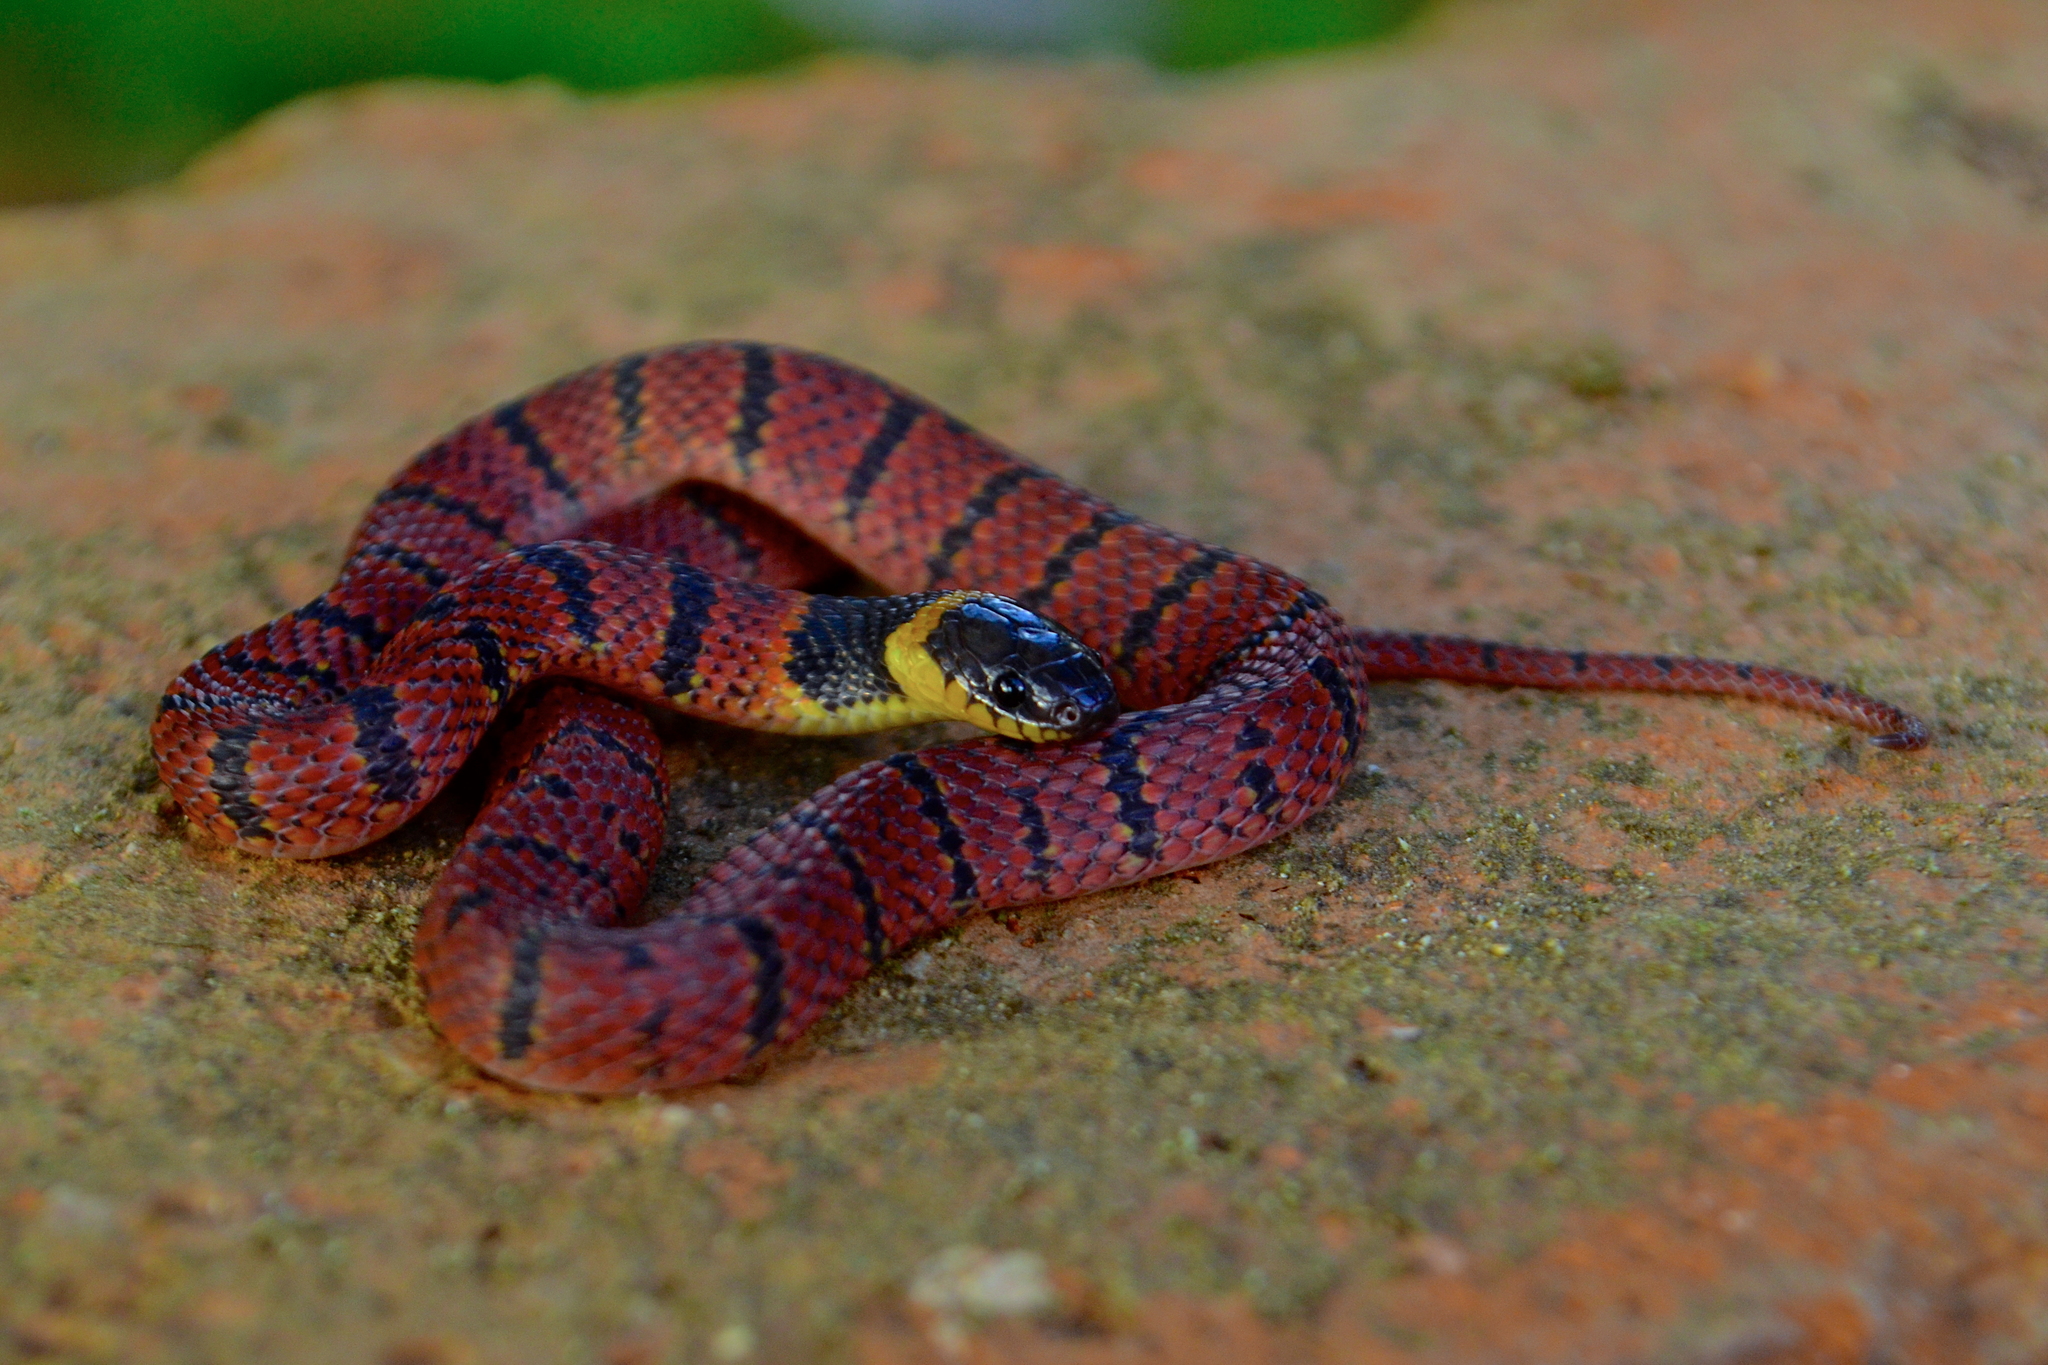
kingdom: Animalia
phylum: Chordata
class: Squamata
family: Colubridae
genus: Ninia
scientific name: Ninia sebae
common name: Redback coffee snake
